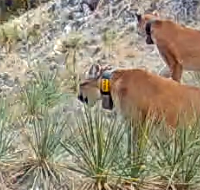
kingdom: Animalia
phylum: Chordata
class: Mammalia
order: Carnivora
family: Felidae
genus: Puma
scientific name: Puma concolor
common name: Puma
